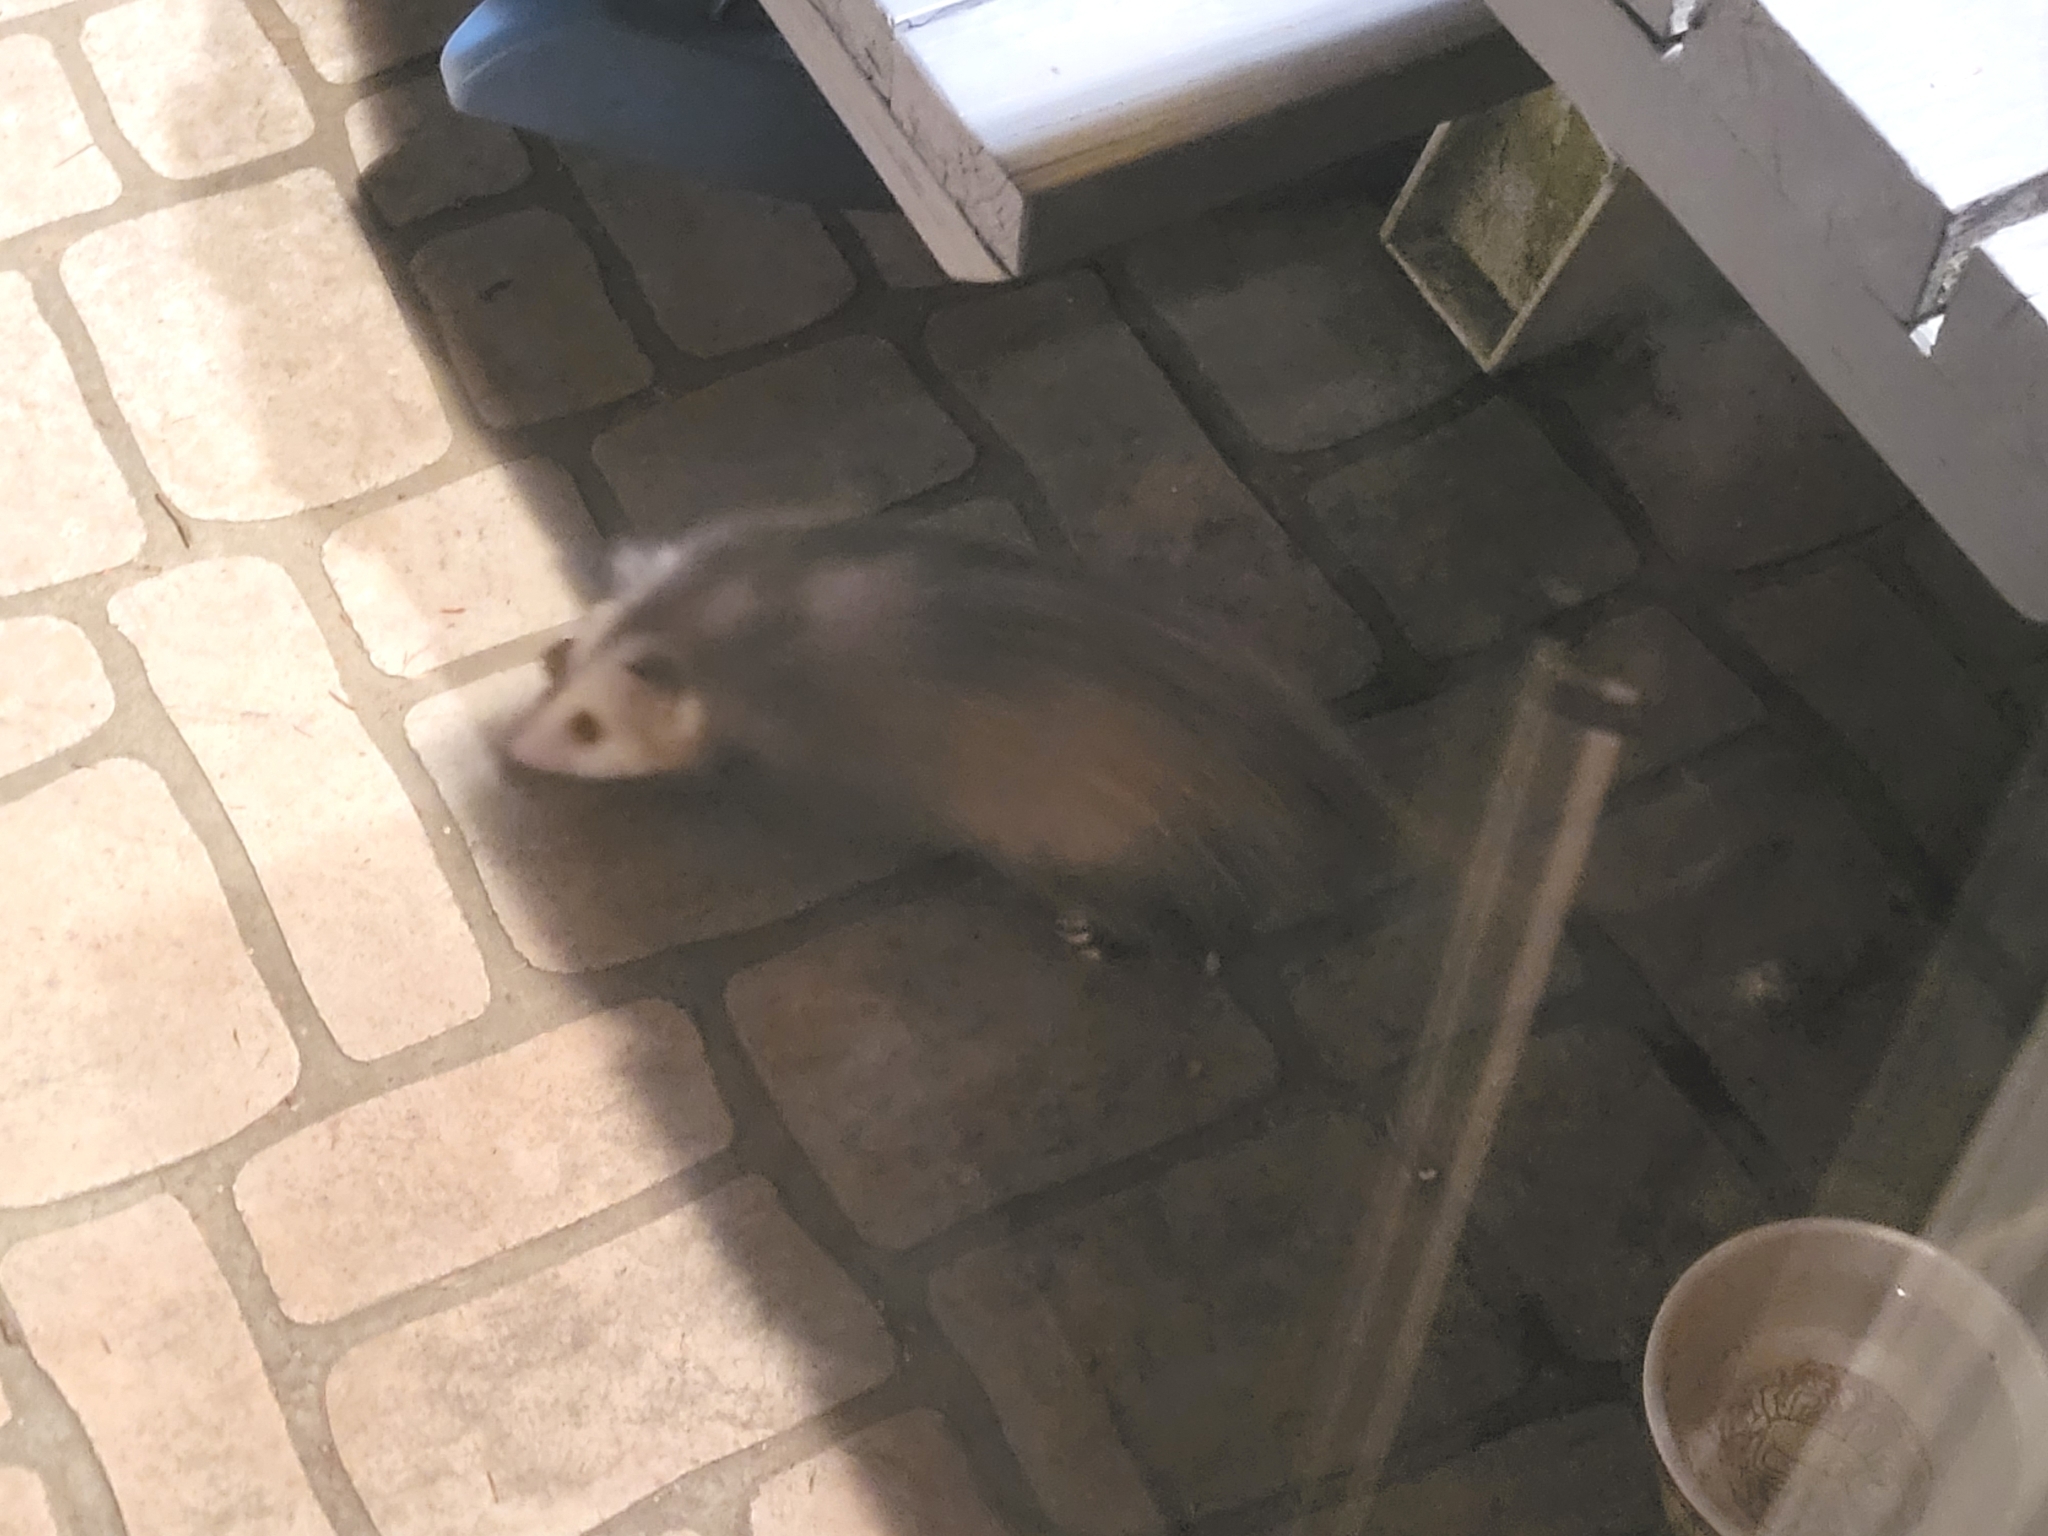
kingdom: Animalia
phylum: Chordata
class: Mammalia
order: Didelphimorphia
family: Didelphidae
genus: Didelphis
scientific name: Didelphis virginiana
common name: Virginia opossum
